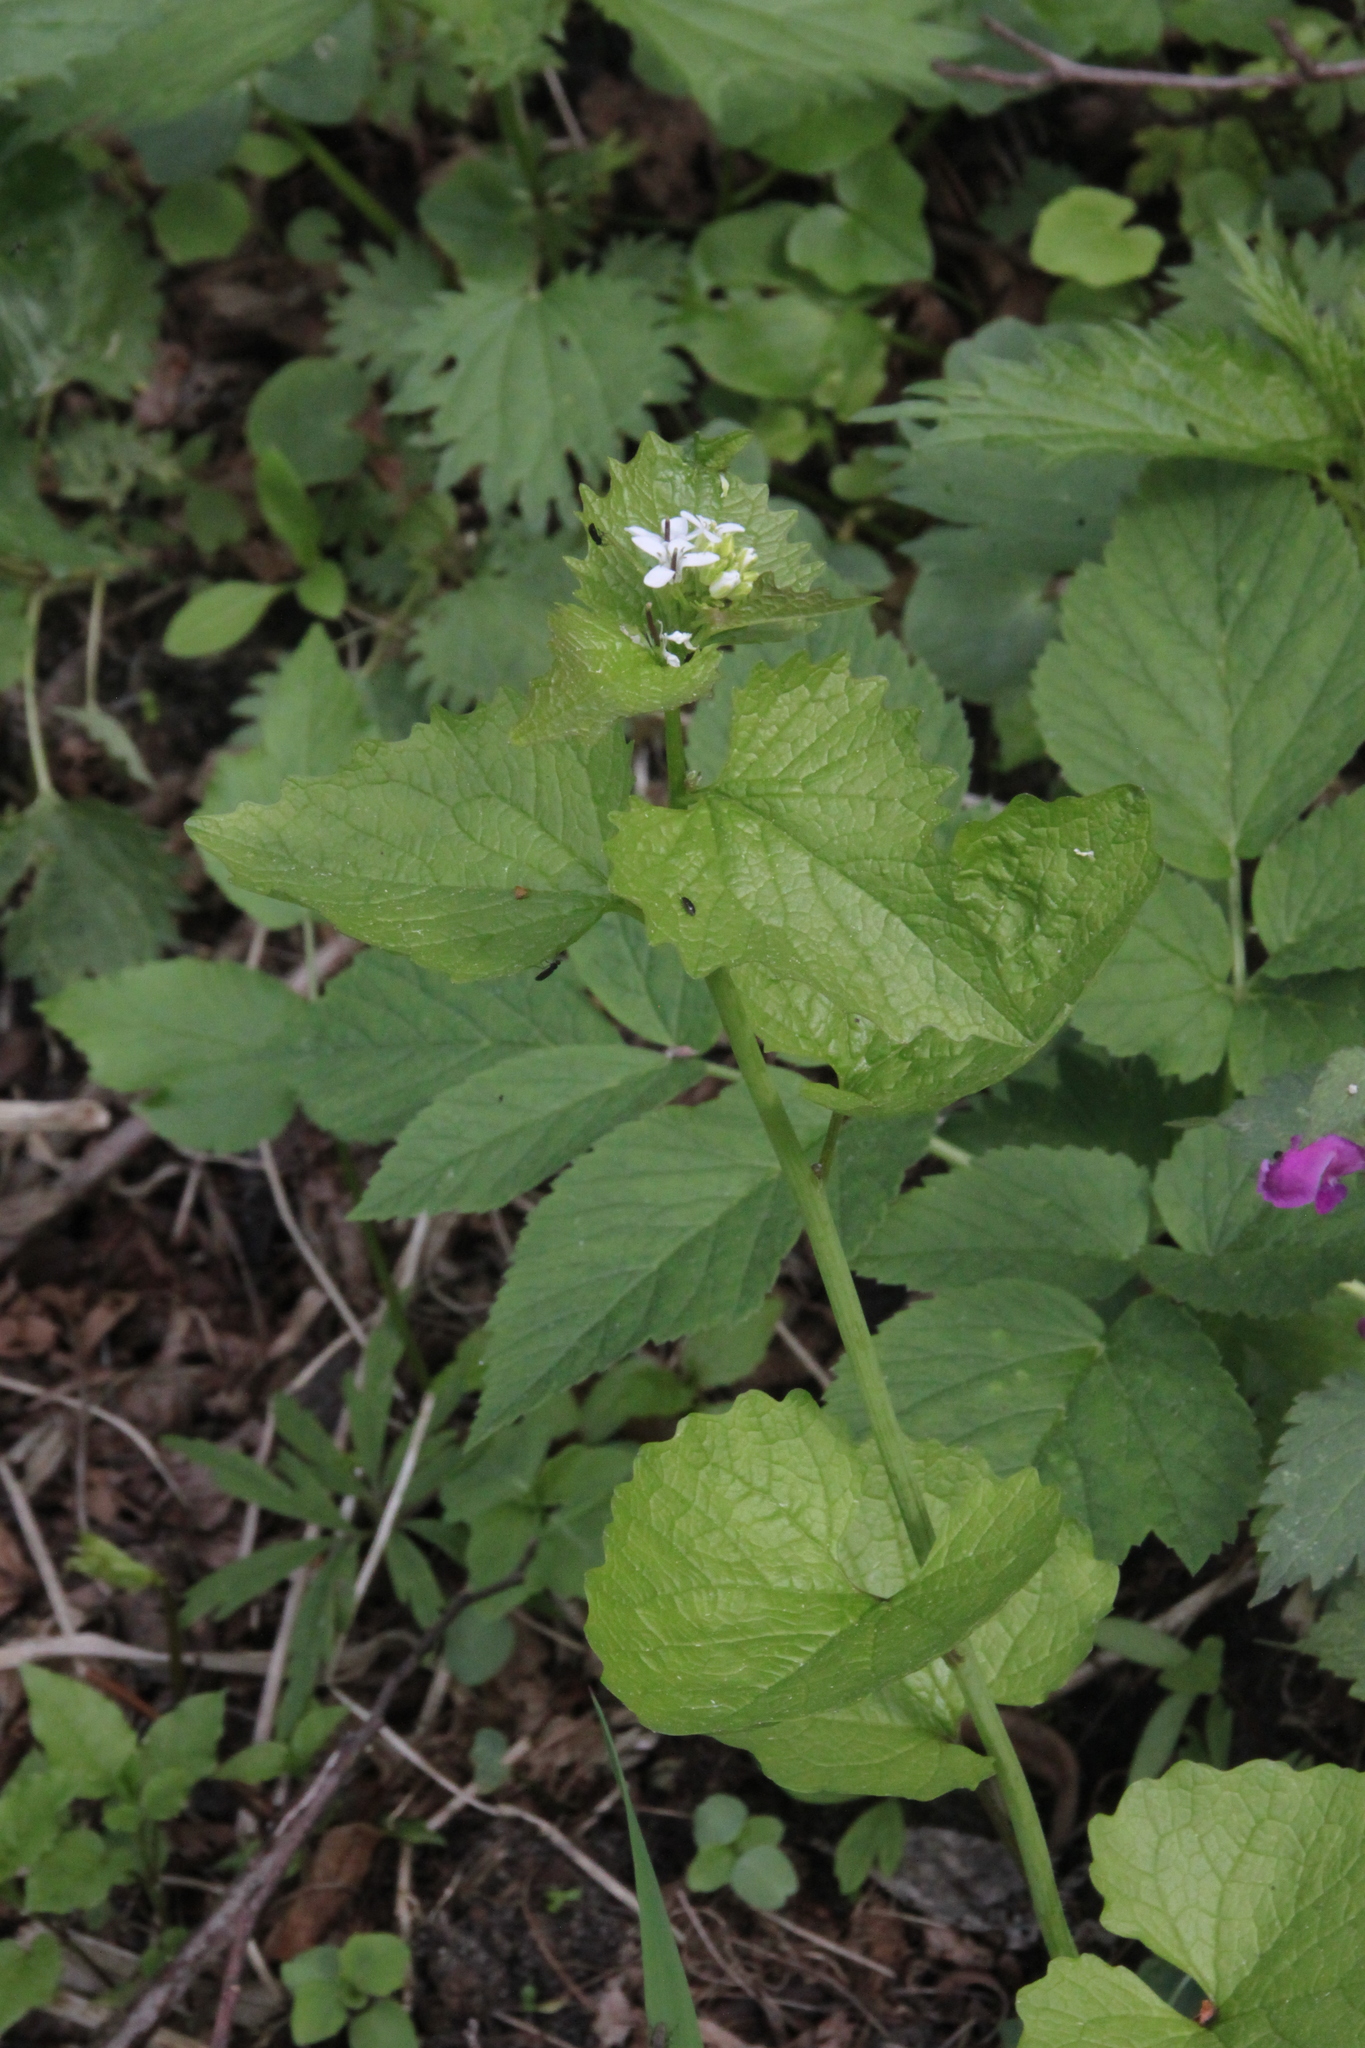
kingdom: Plantae
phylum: Tracheophyta
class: Magnoliopsida
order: Brassicales
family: Brassicaceae
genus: Alliaria
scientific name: Alliaria petiolata
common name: Garlic mustard
